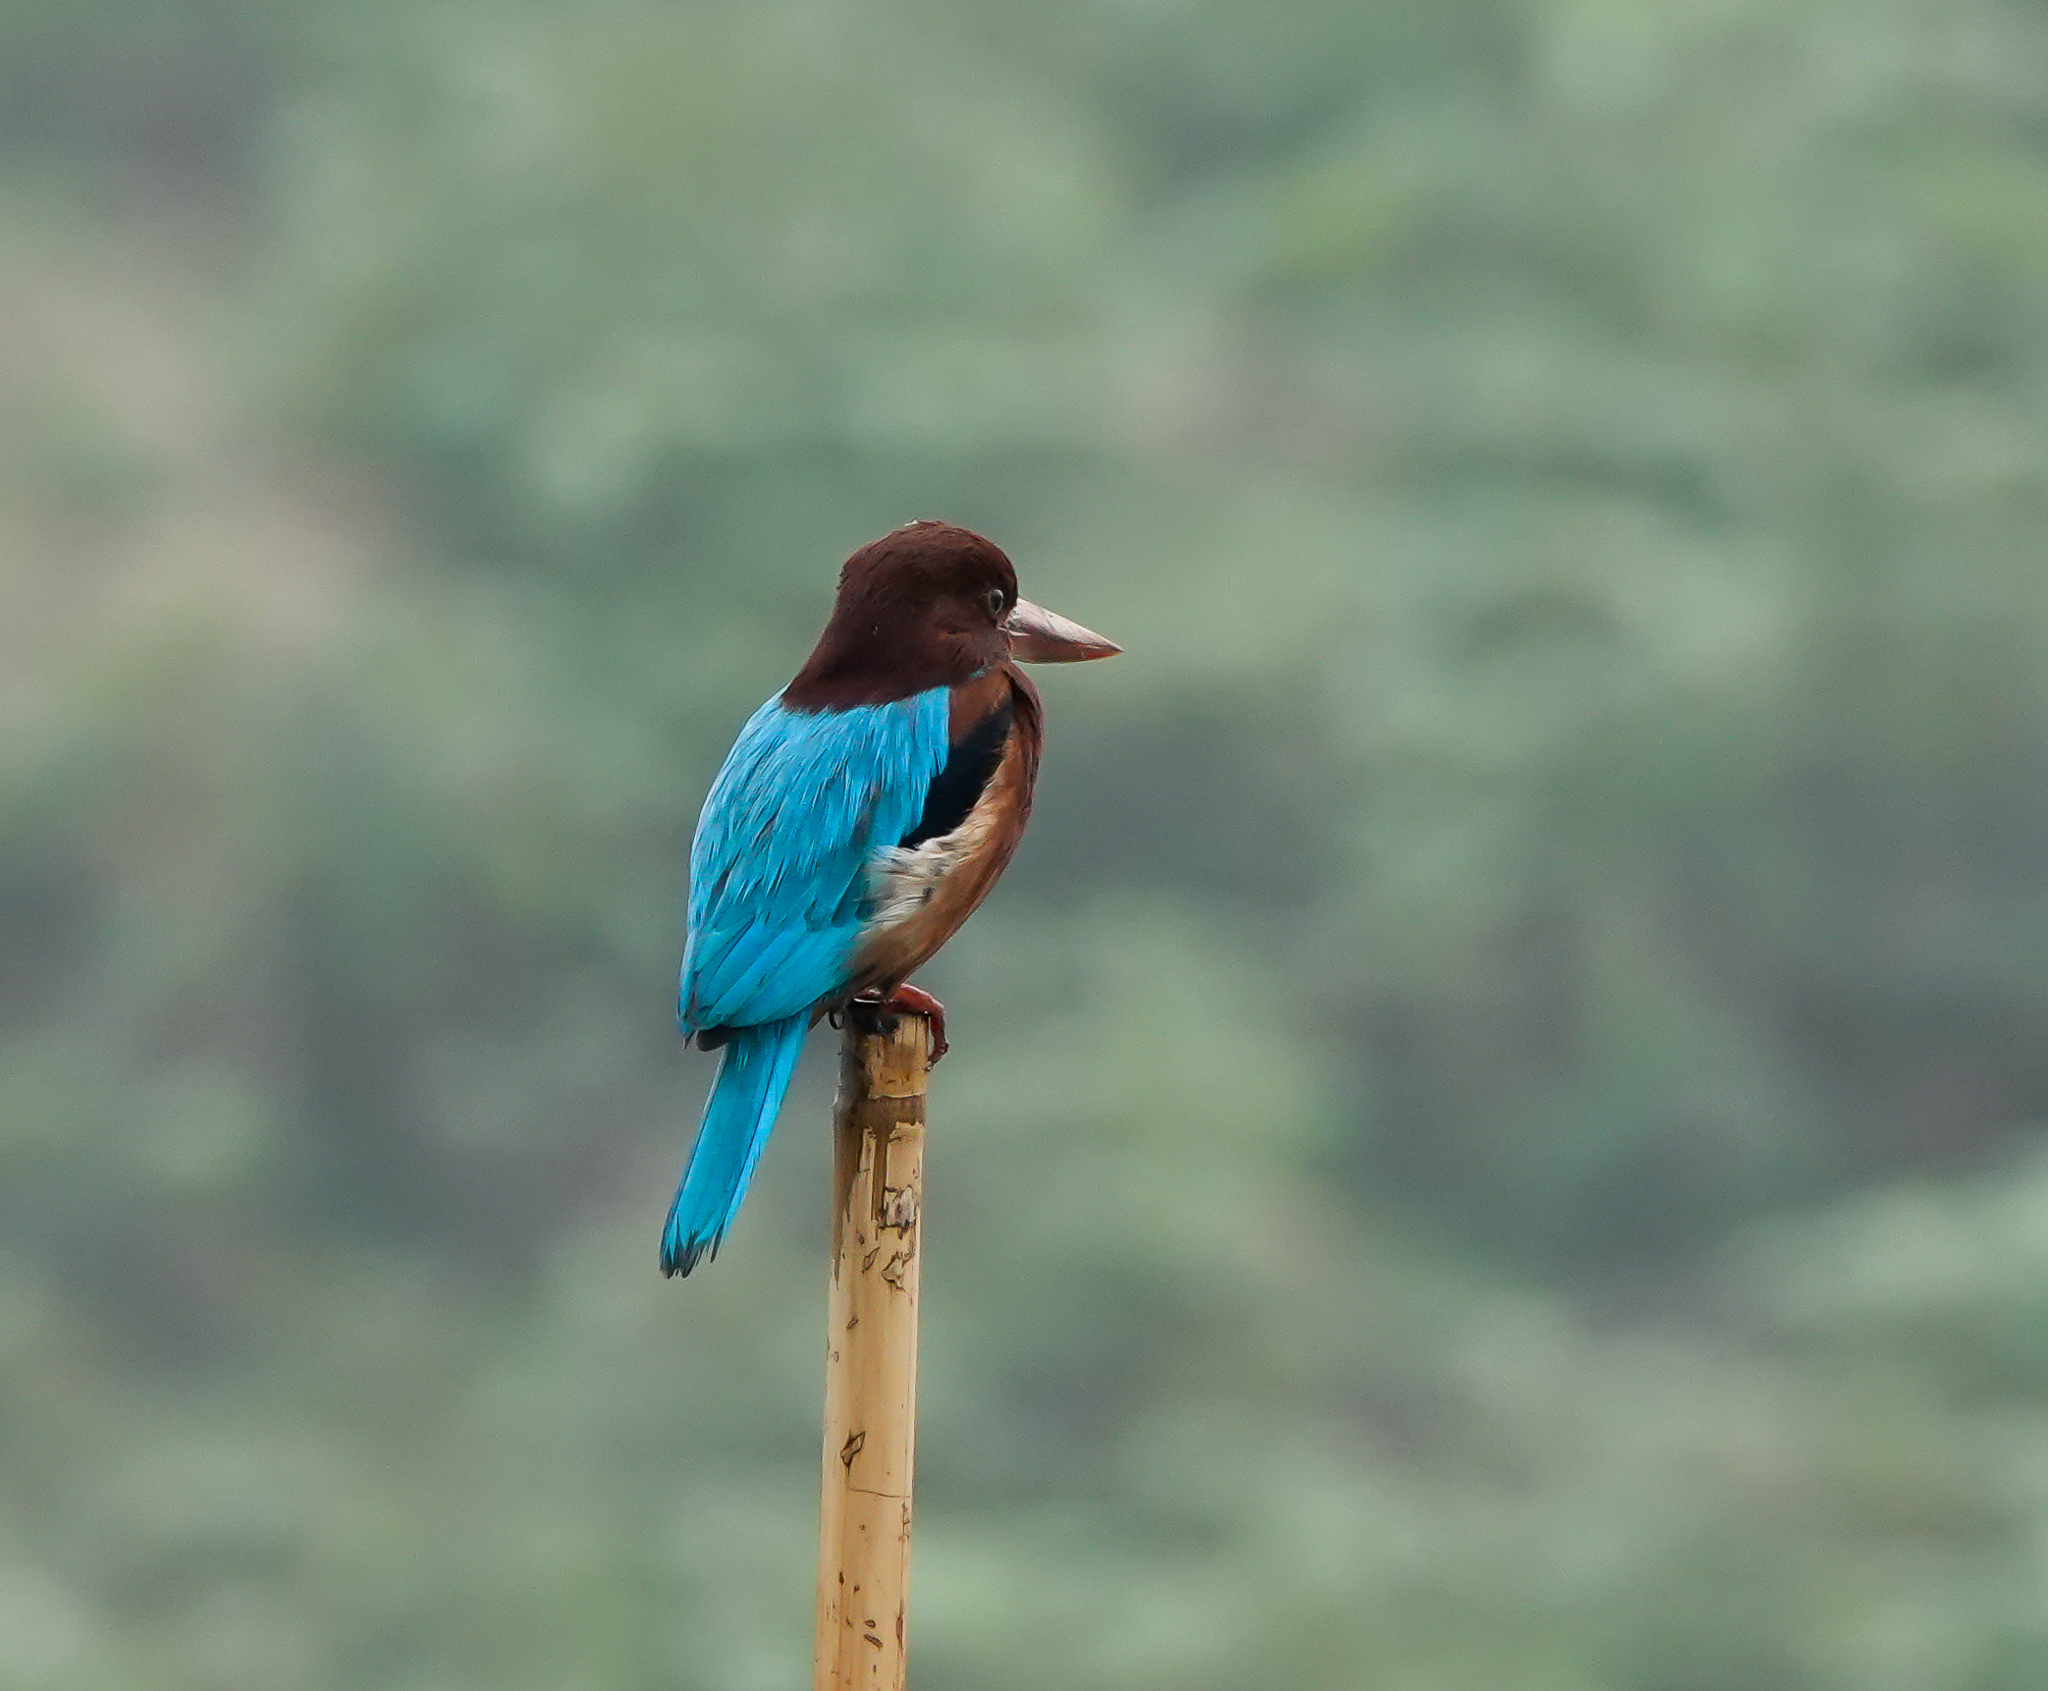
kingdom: Animalia
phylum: Chordata
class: Aves
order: Coraciiformes
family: Alcedinidae
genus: Halcyon
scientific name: Halcyon smyrnensis
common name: White-throated kingfisher
